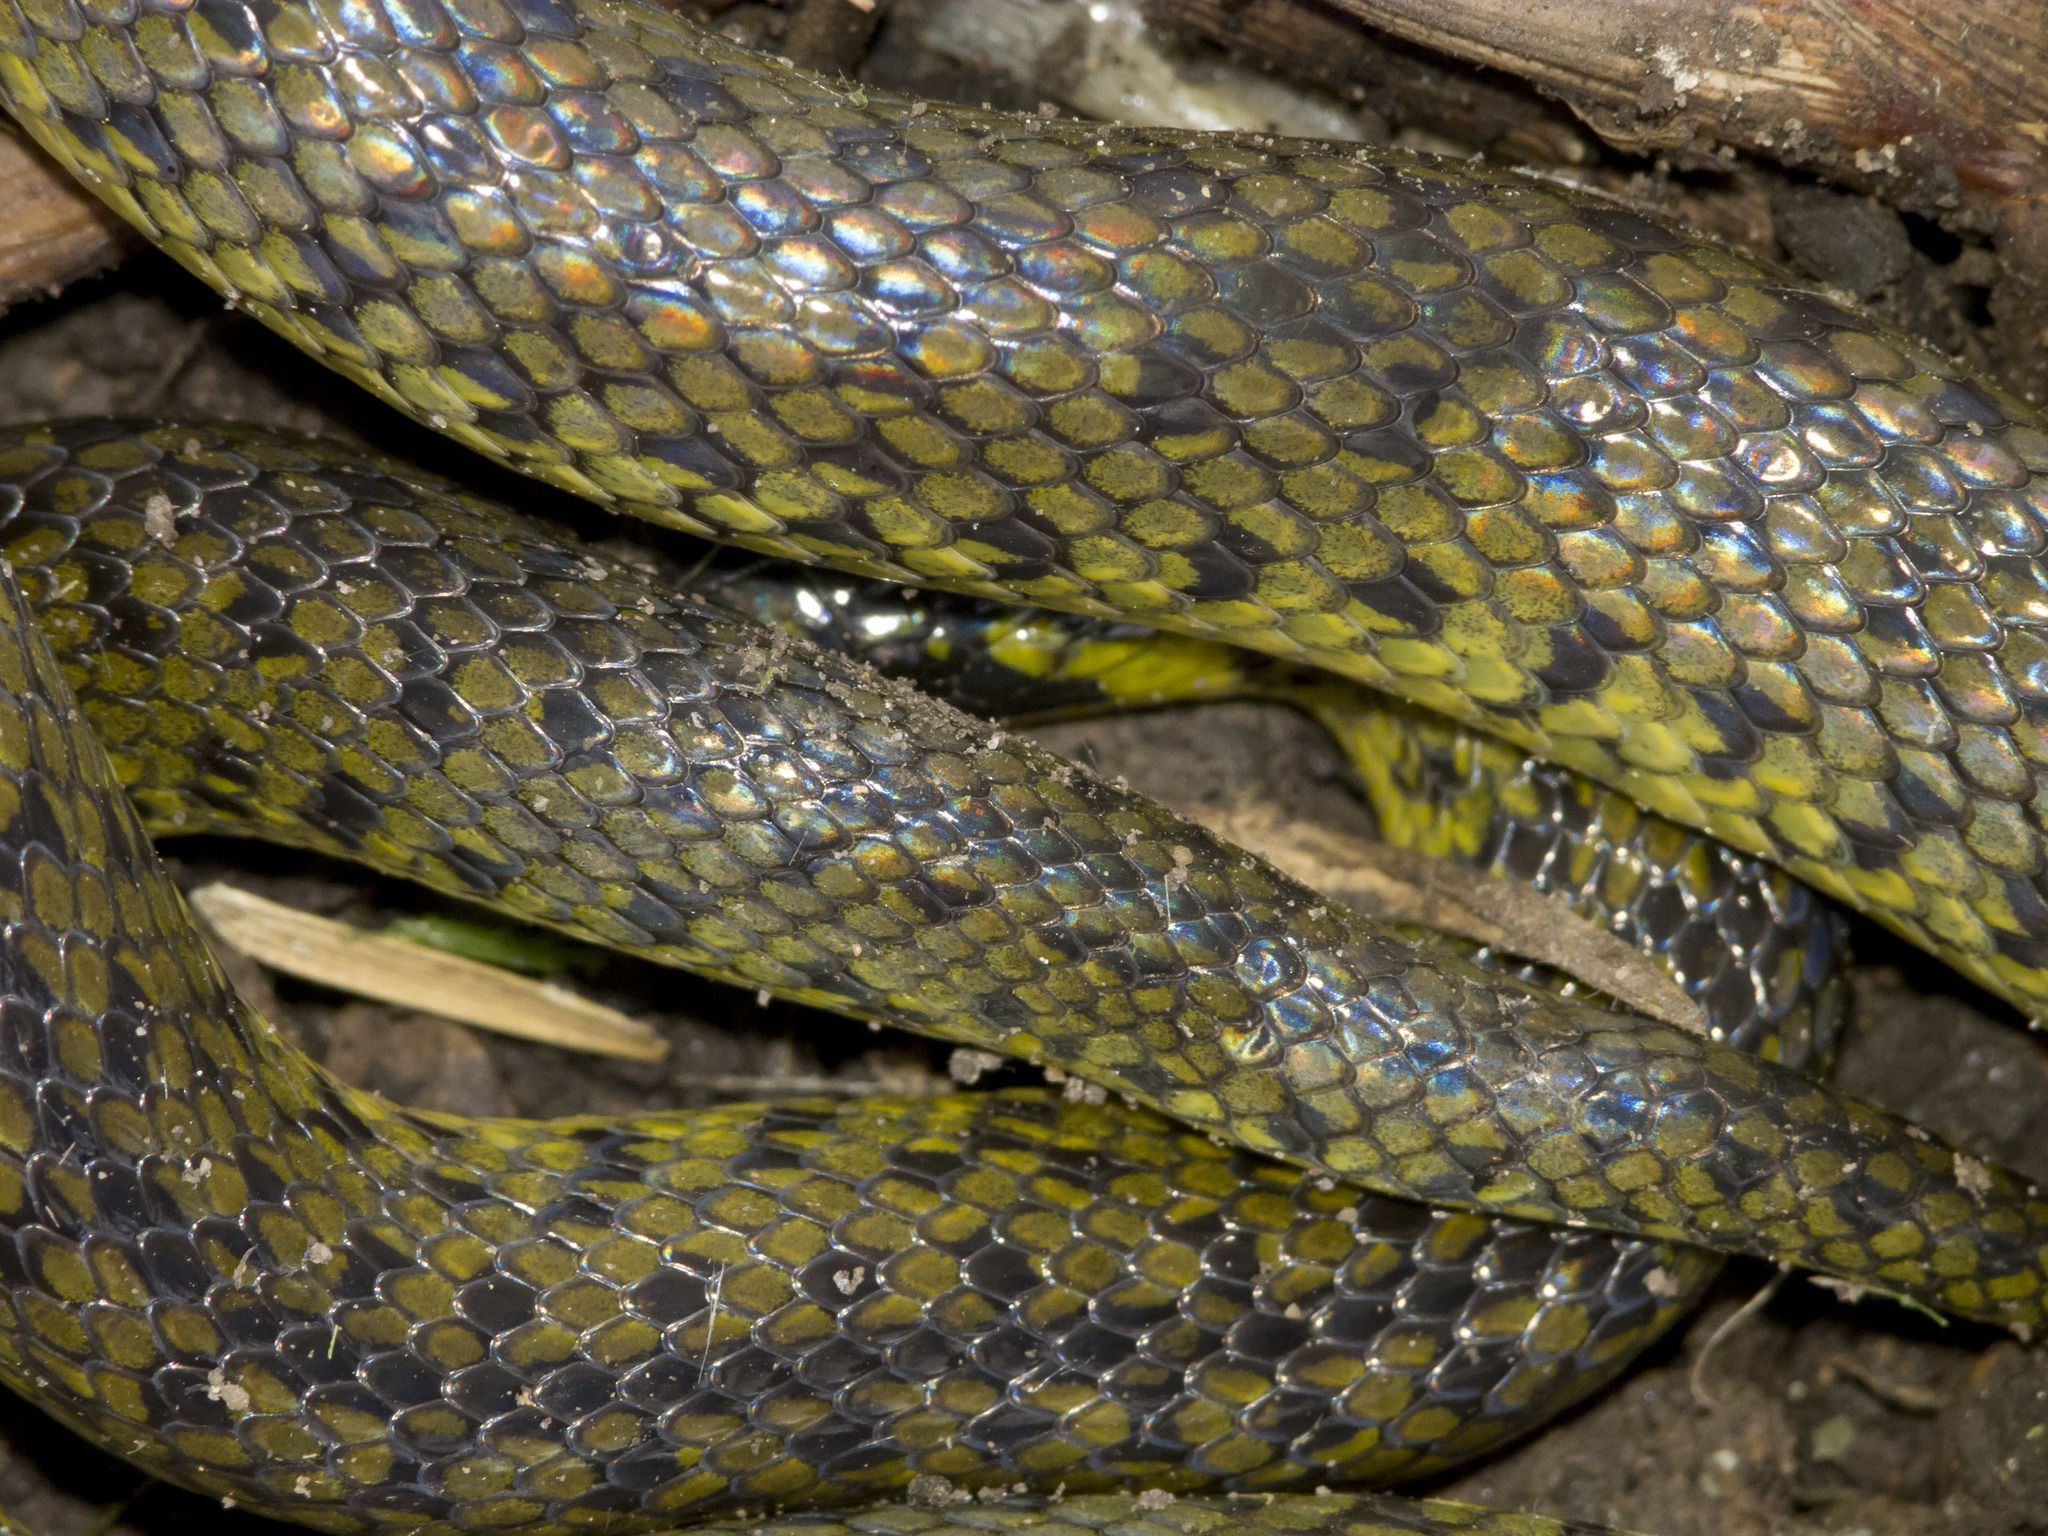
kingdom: Animalia
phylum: Chordata
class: Squamata
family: Colubridae
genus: Atractus
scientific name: Atractus crassicaudatus
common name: Thickhead ground snake
